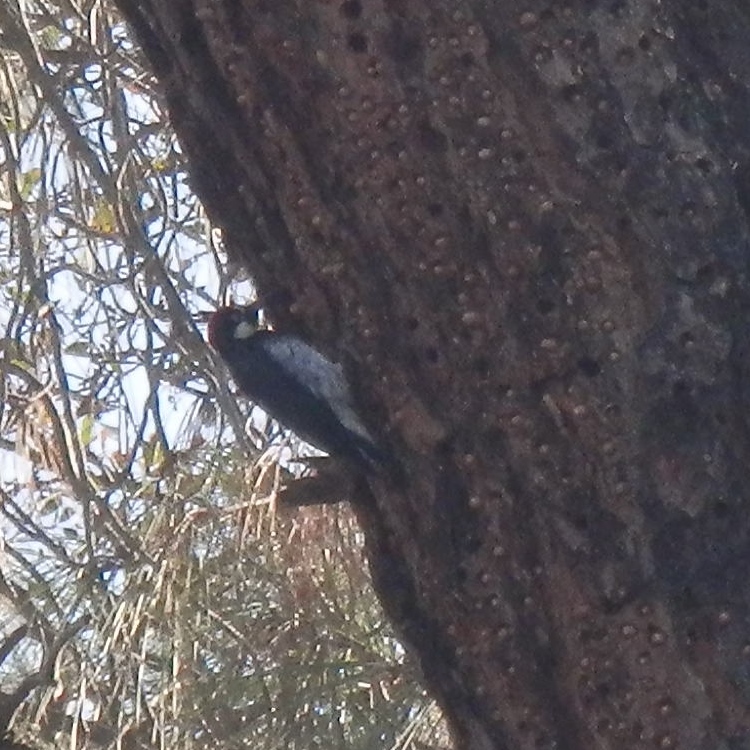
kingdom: Animalia
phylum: Chordata
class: Aves
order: Piciformes
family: Picidae
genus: Melanerpes
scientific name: Melanerpes formicivorus
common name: Acorn woodpecker
